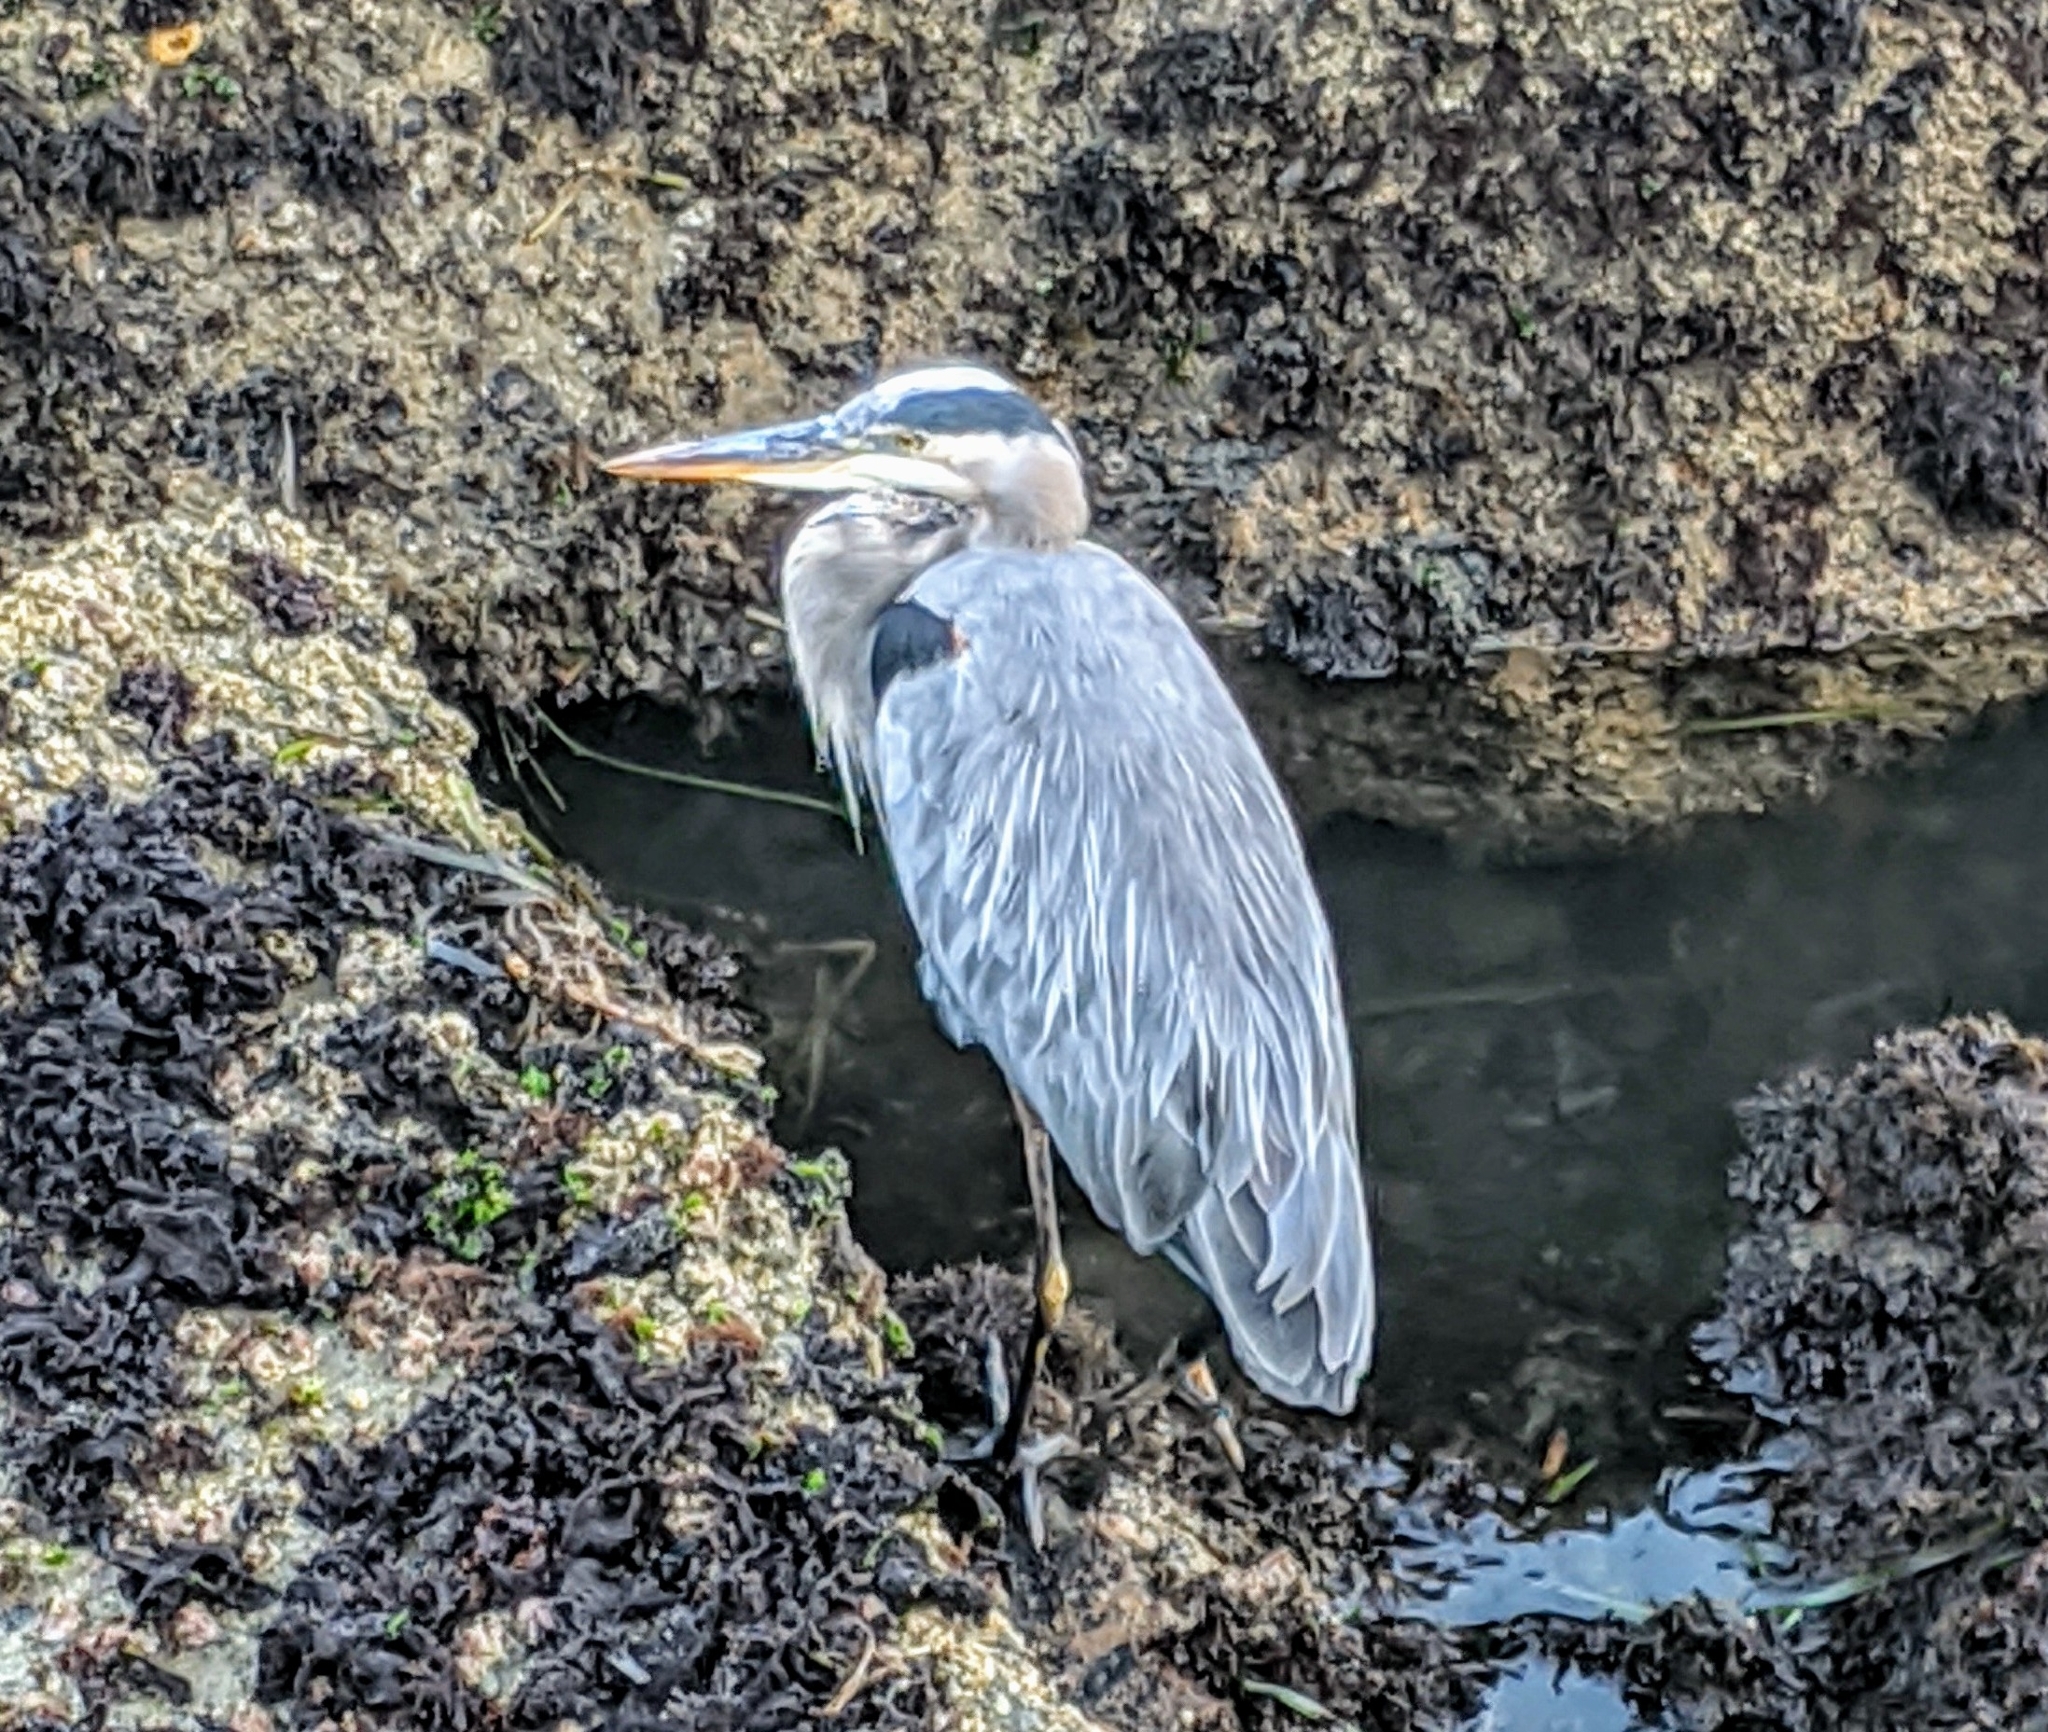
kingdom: Animalia
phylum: Chordata
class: Aves
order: Pelecaniformes
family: Ardeidae
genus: Ardea
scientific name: Ardea herodias
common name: Great blue heron
